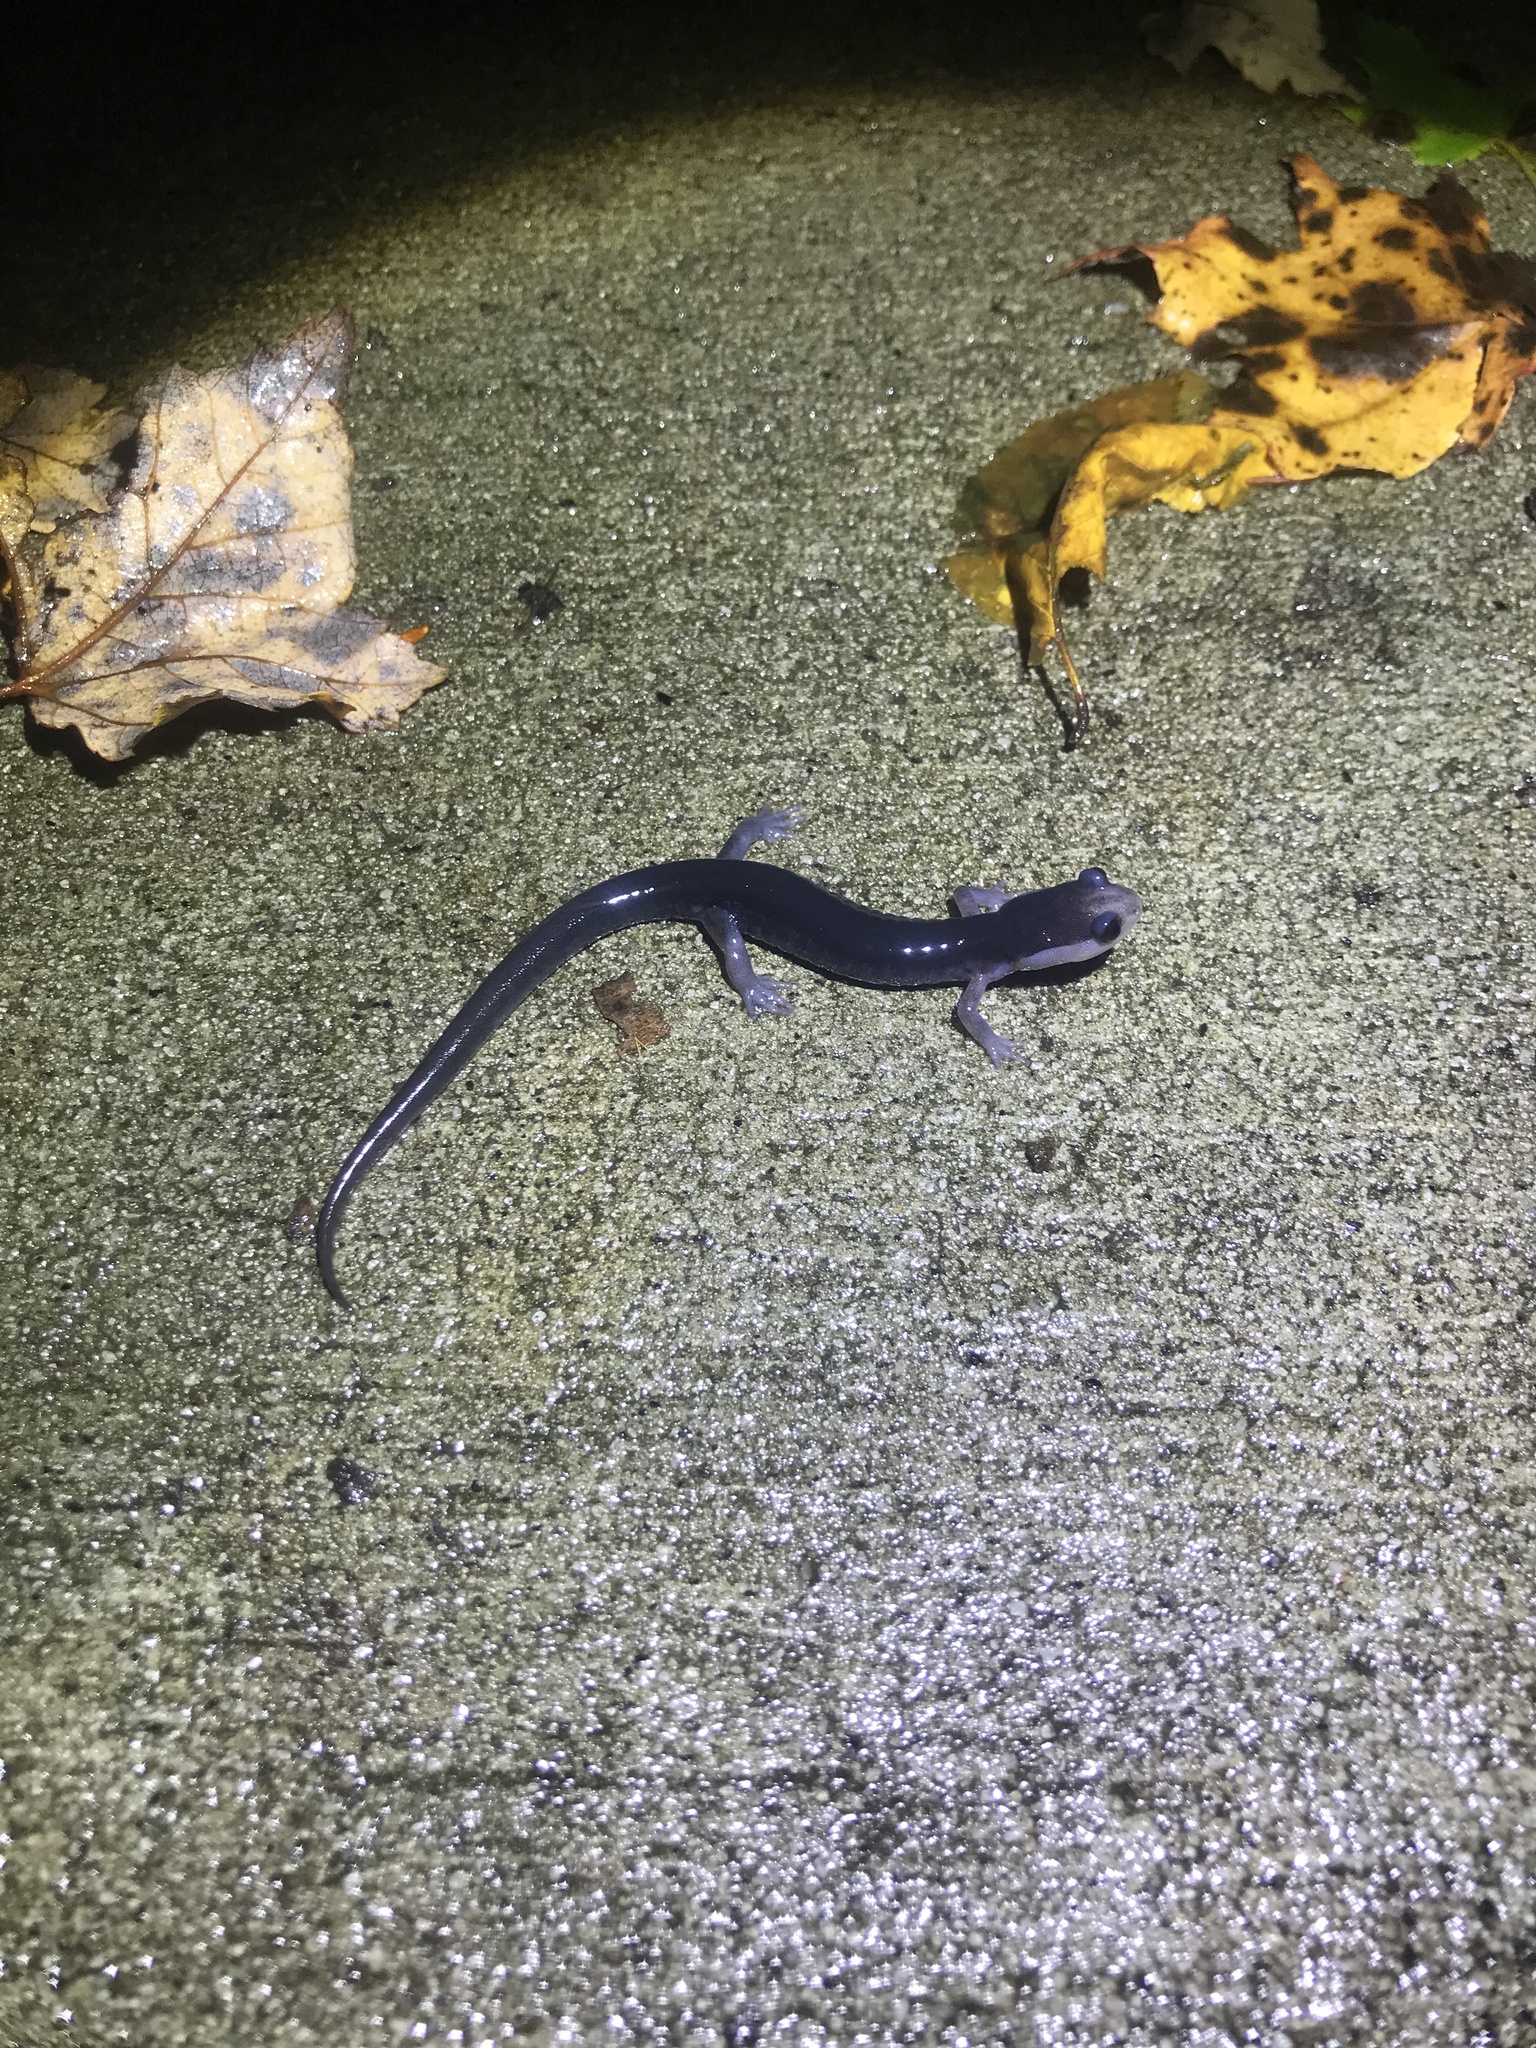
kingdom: Animalia
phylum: Chordata
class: Amphibia
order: Caudata
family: Plethodontidae
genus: Plethodon
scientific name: Plethodon metcalfi
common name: Southern gray-cheeked salamander
